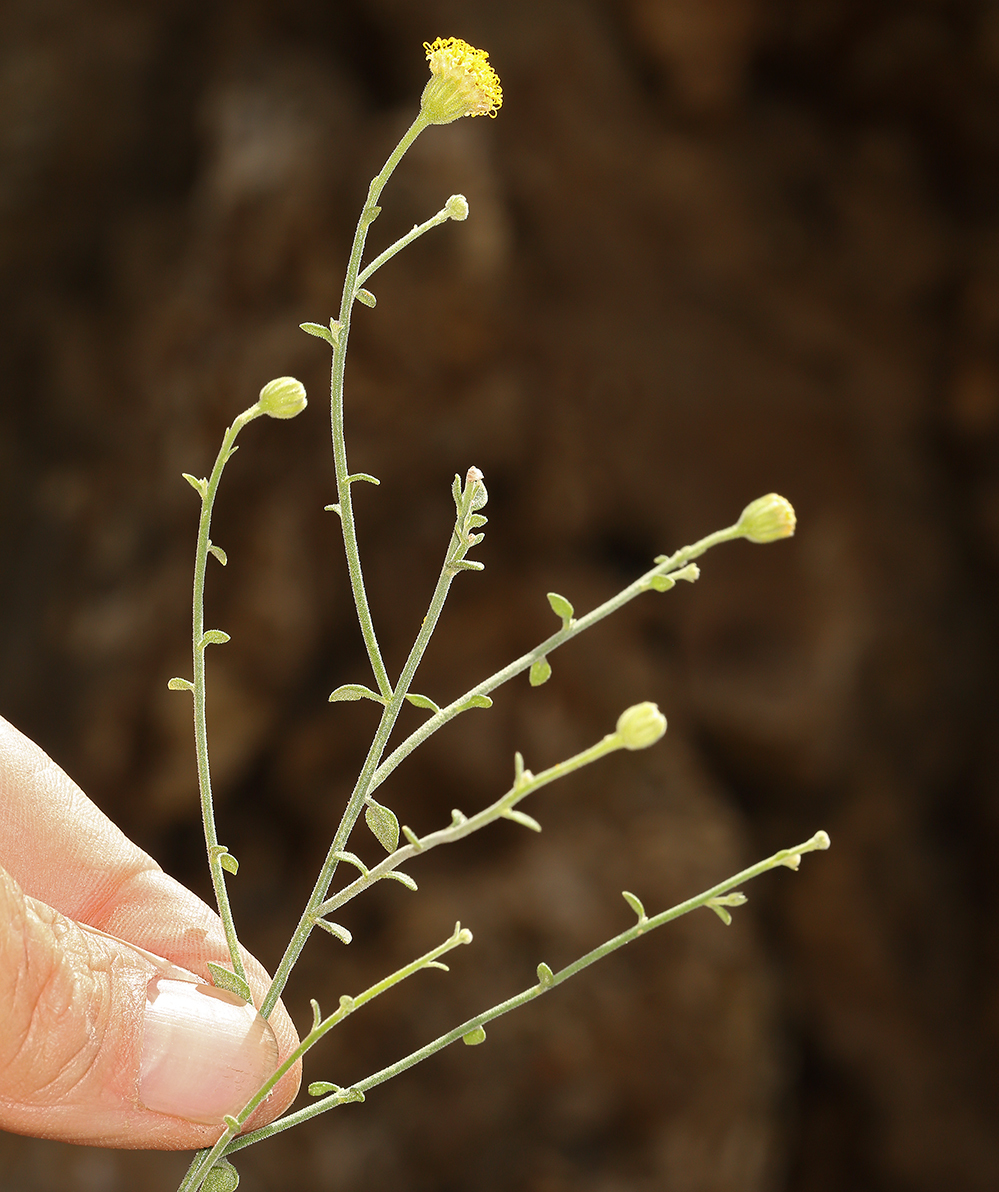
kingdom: Plantae
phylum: Tracheophyta
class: Magnoliopsida
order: Asterales
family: Asteraceae
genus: Laphamia
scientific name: Laphamia megalocephala
